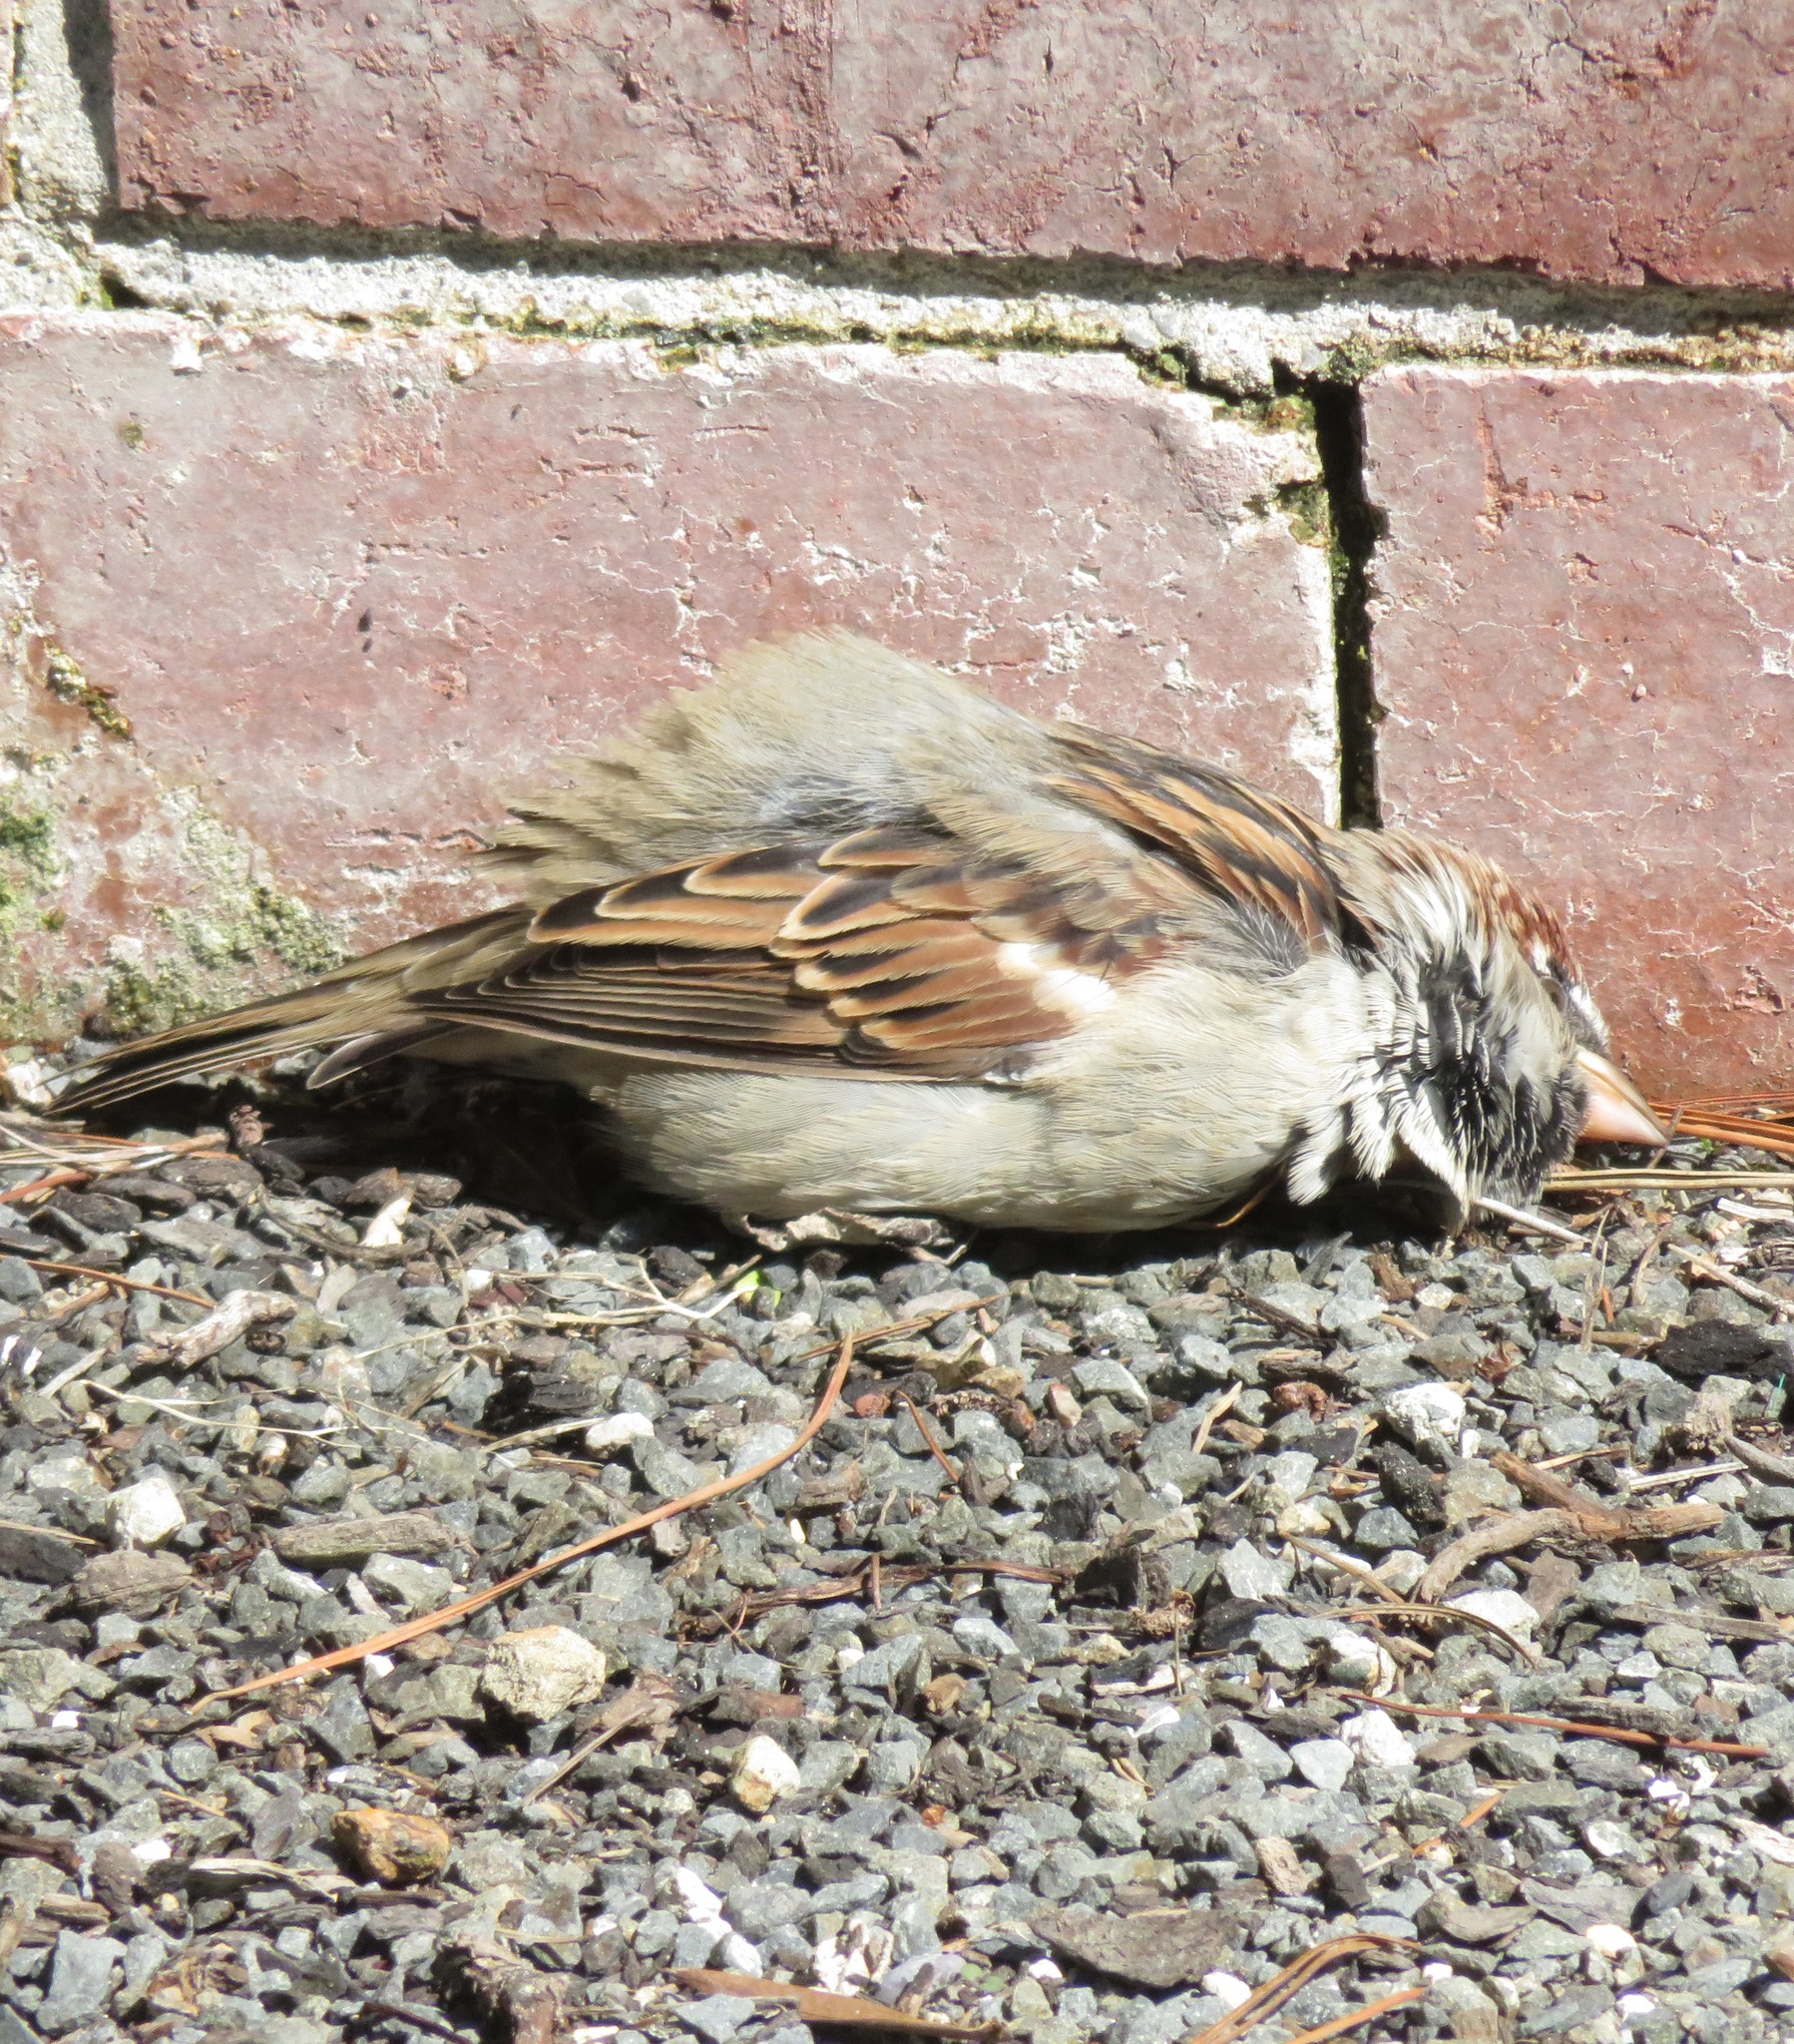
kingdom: Animalia
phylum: Chordata
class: Aves
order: Passeriformes
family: Passeridae
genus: Passer
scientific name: Passer domesticus
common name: House sparrow
